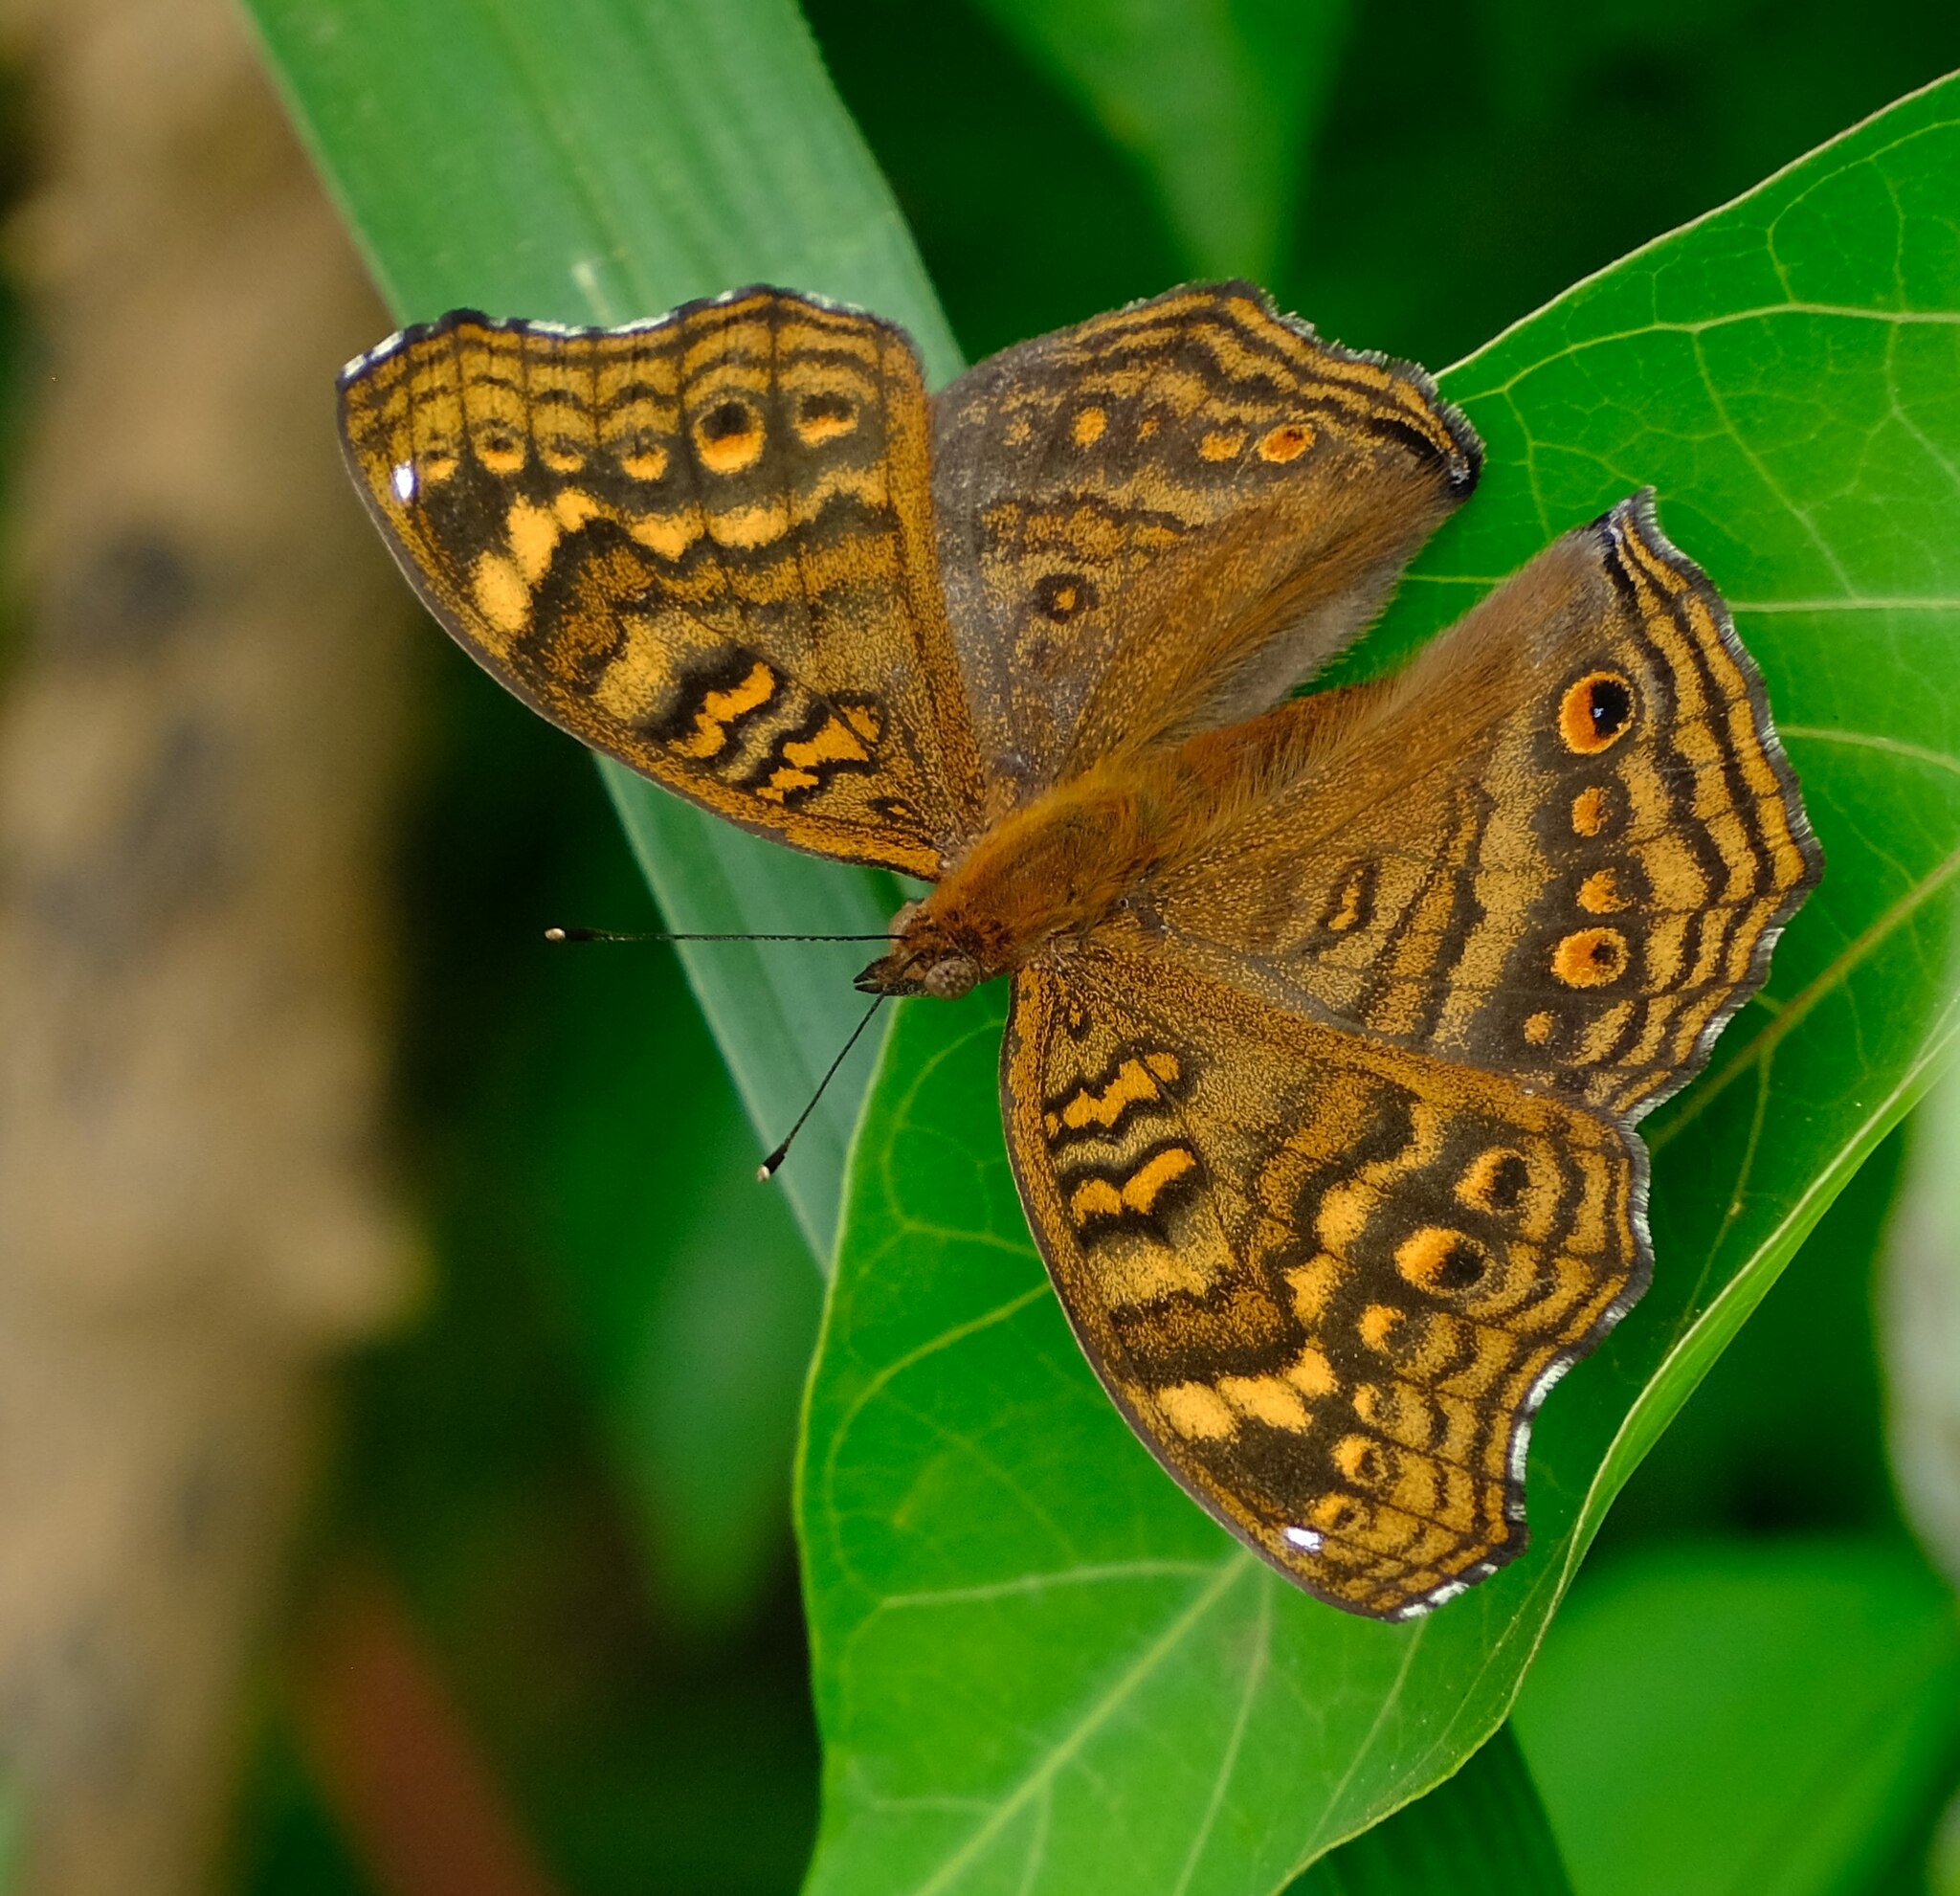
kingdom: Animalia
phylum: Arthropoda
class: Insecta
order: Lepidoptera
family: Nymphalidae
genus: Junonia
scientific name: Junonia chorimene
